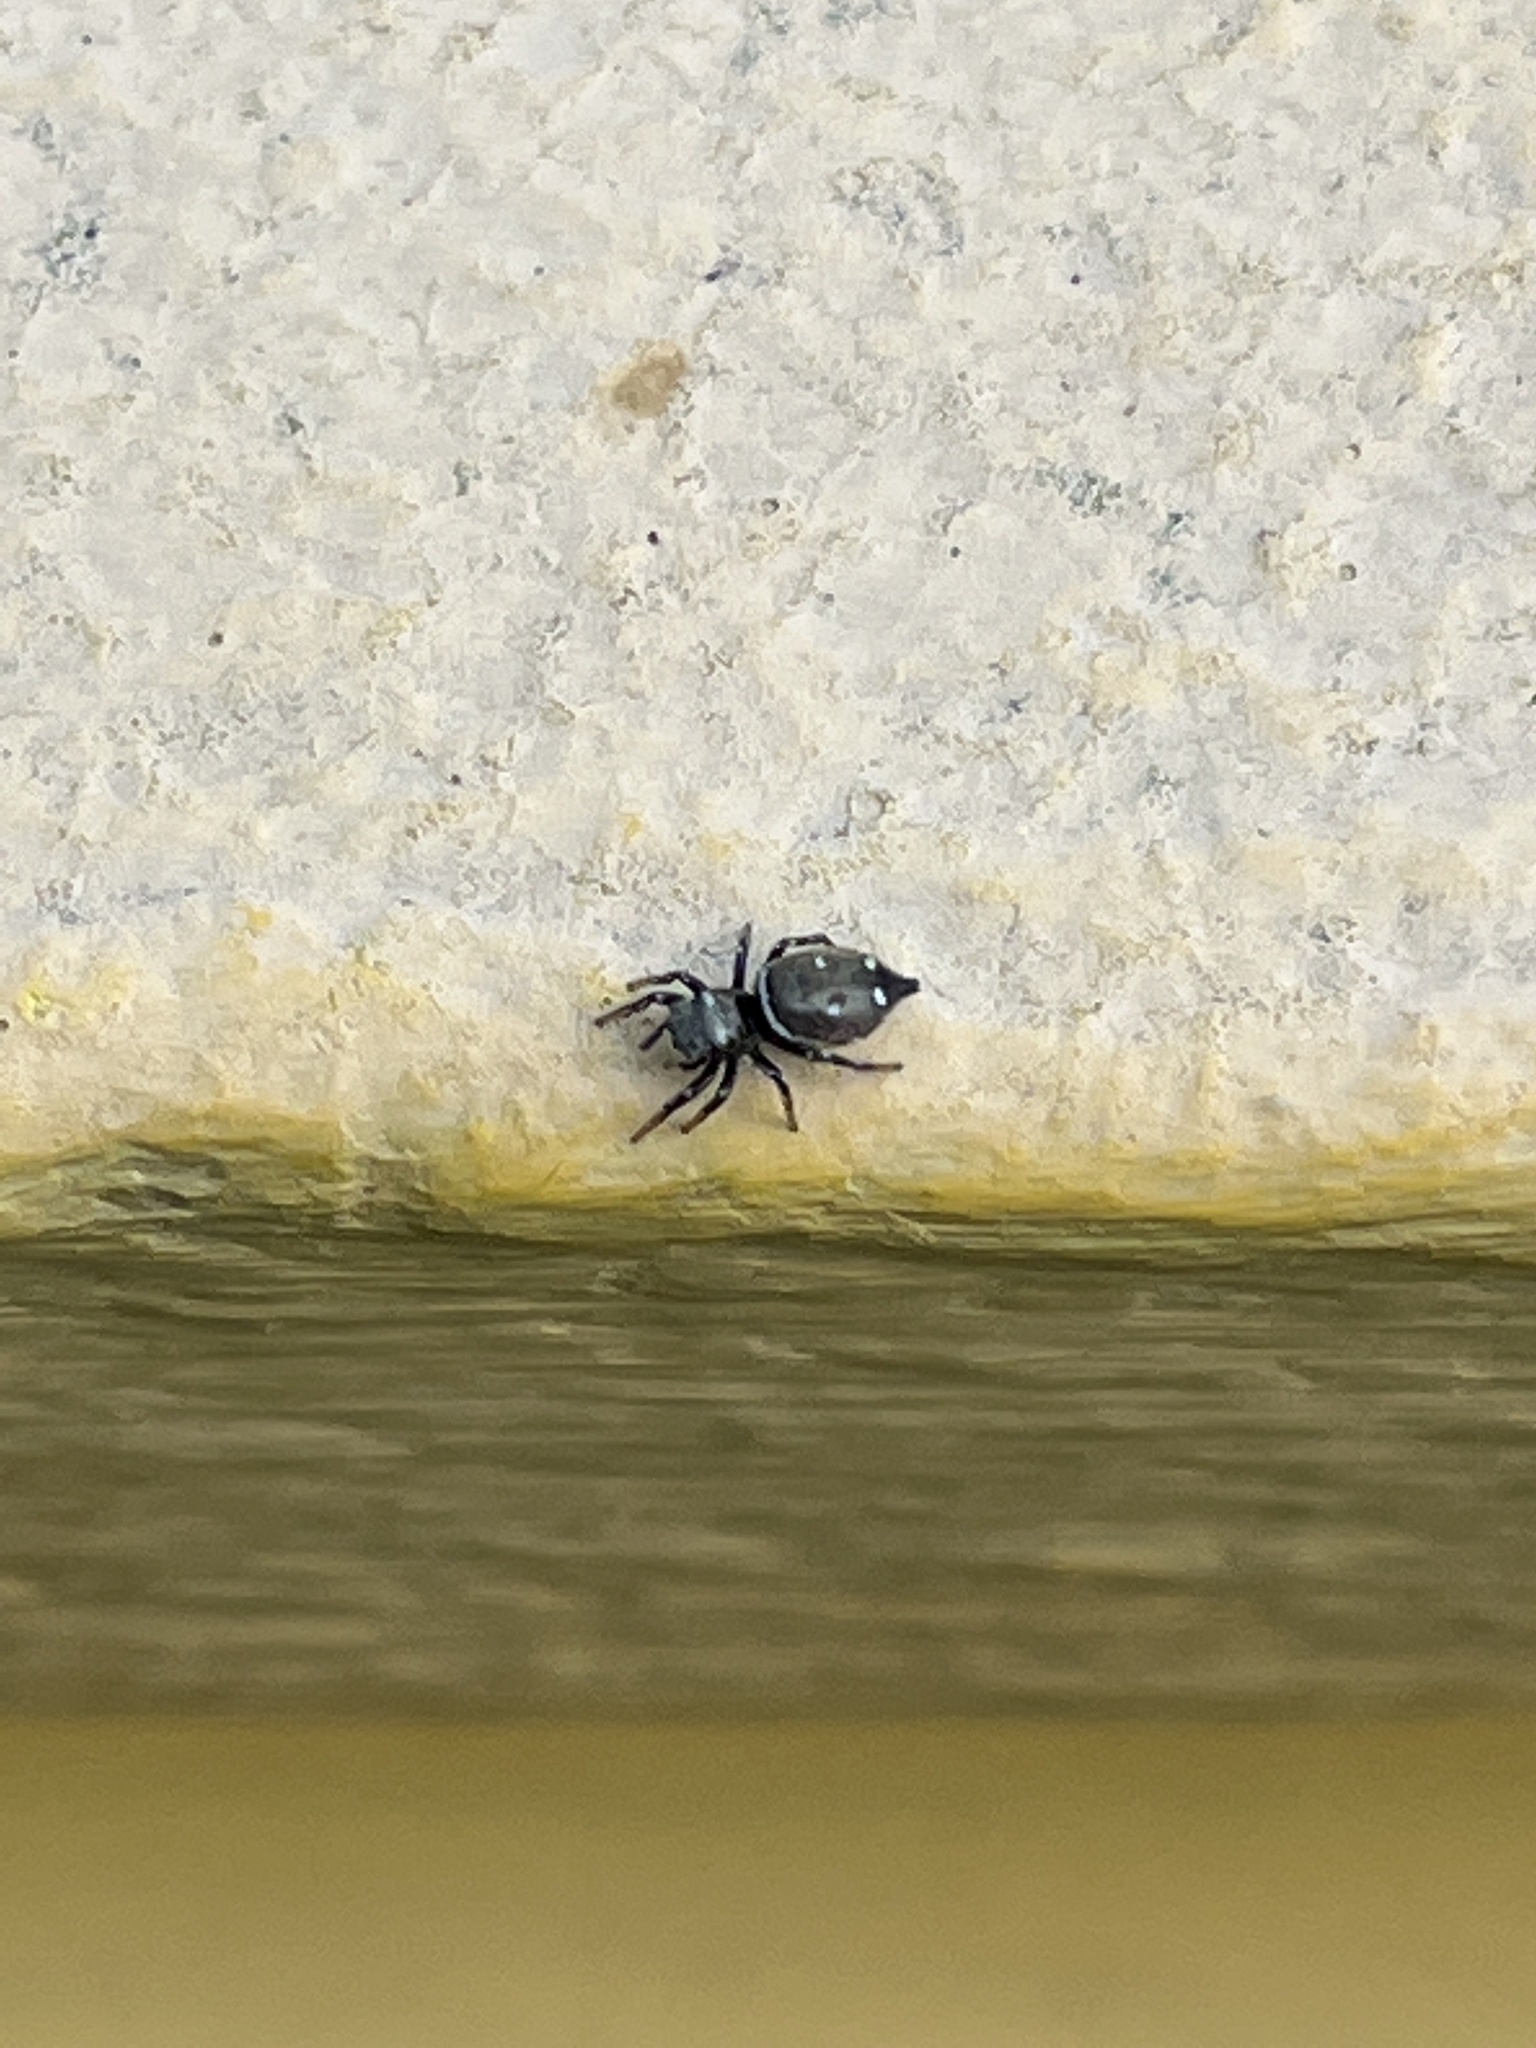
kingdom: Animalia
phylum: Arthropoda
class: Arachnida
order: Araneae
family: Salticidae
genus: Heliophanus
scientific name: Heliophanus kochii
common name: Sun jumping spider
